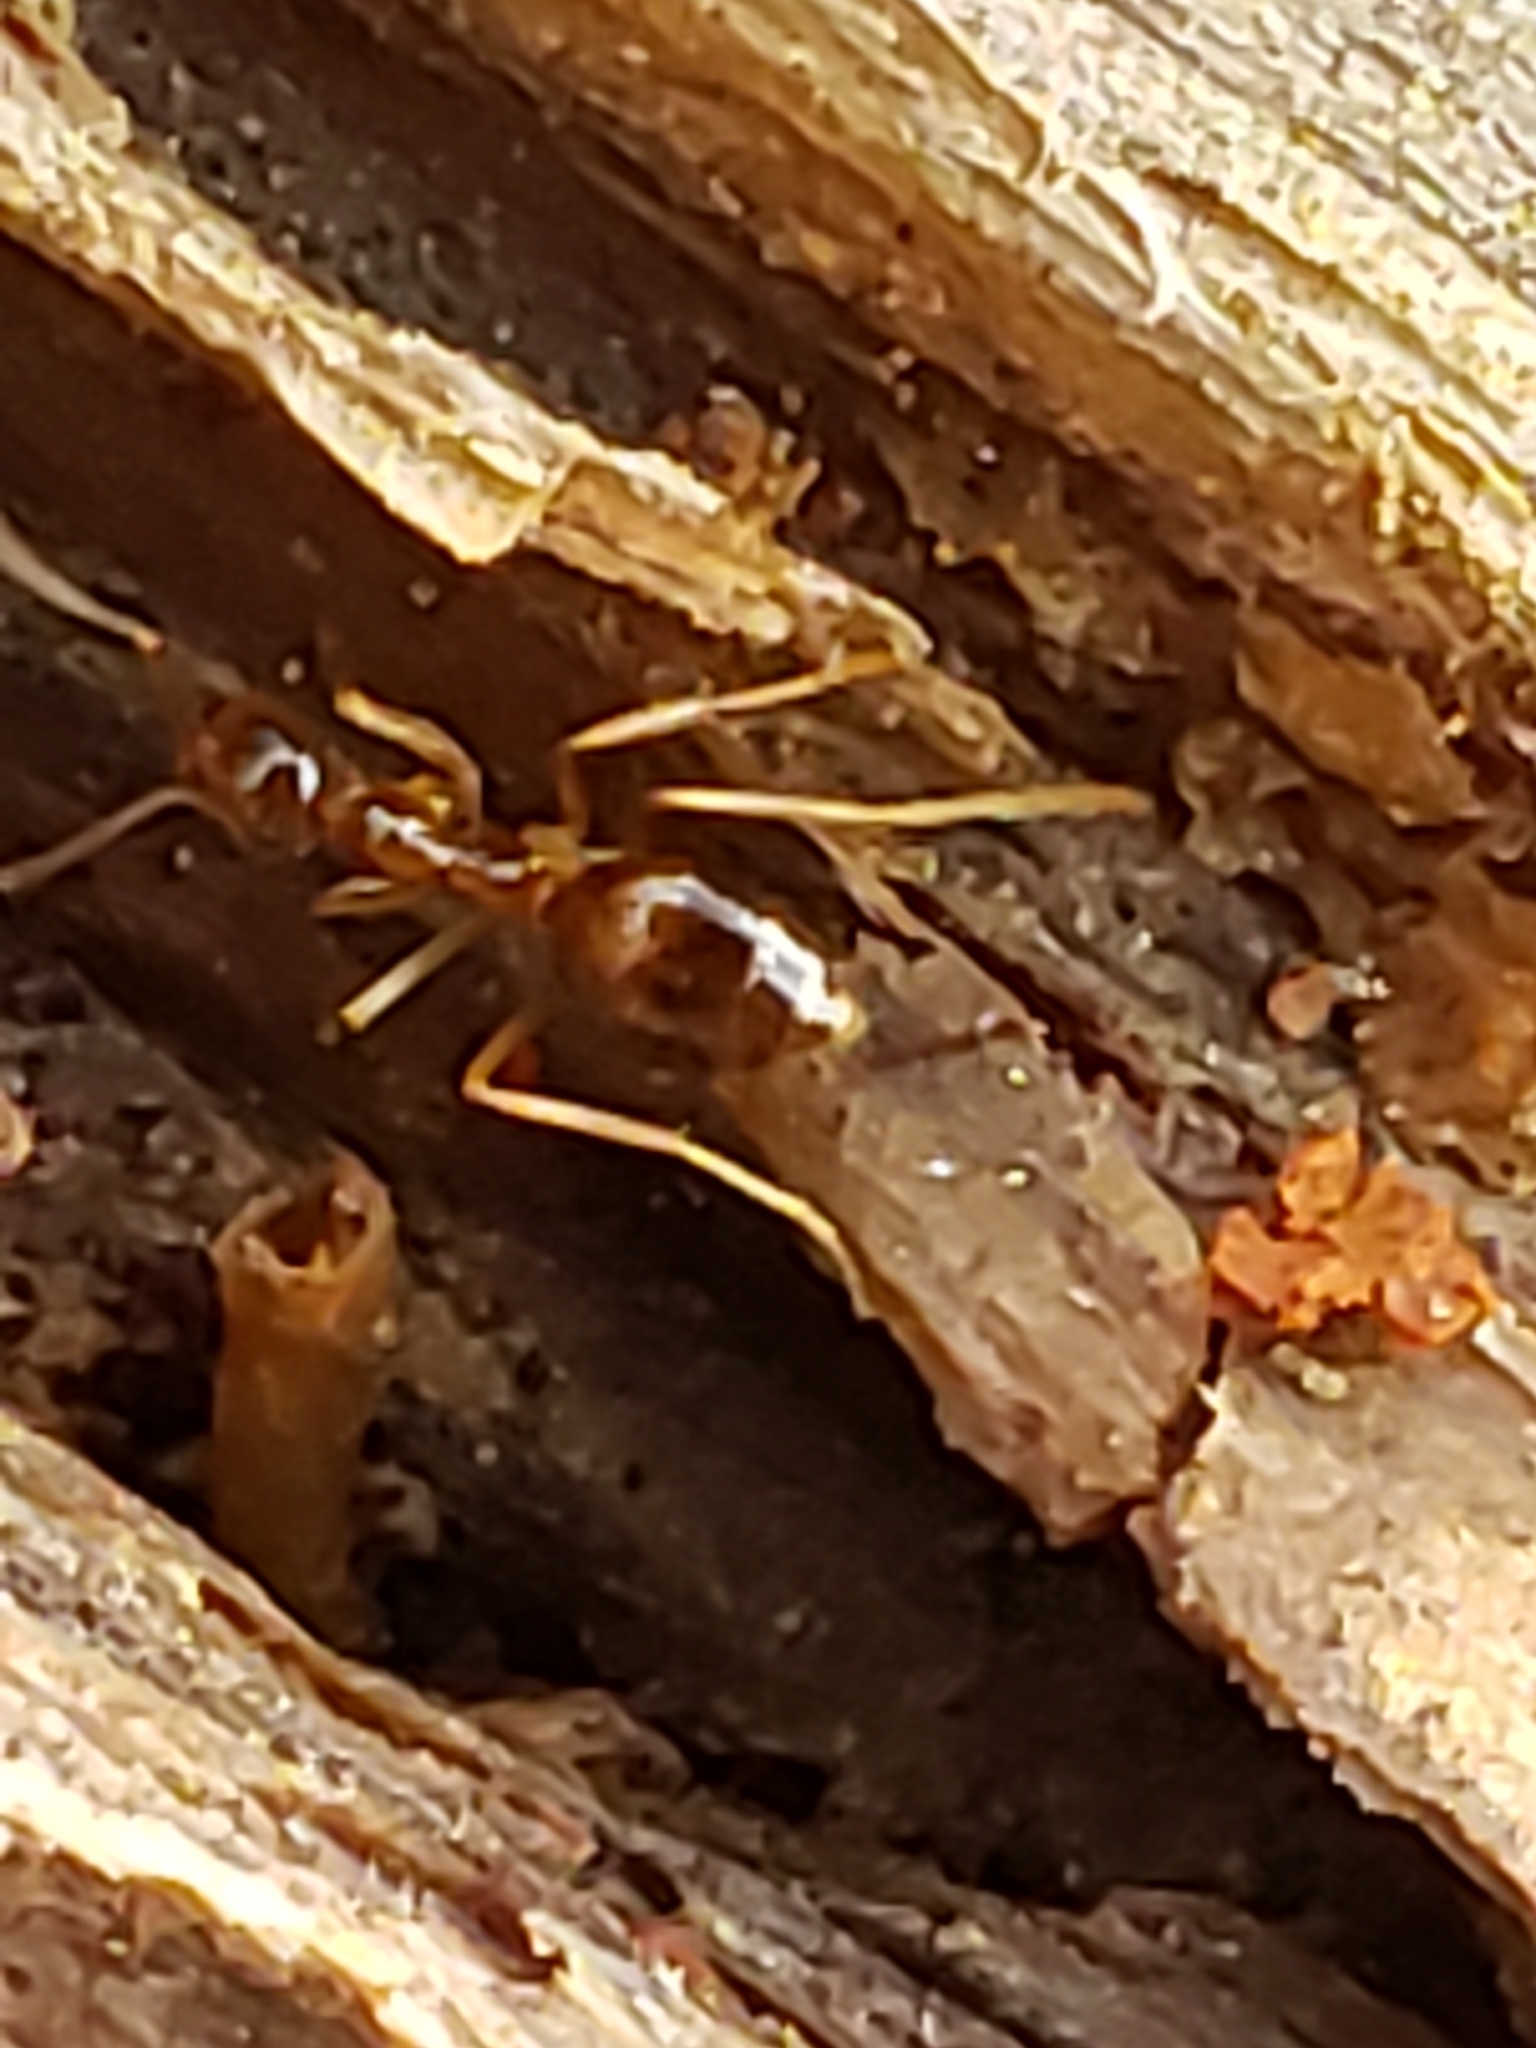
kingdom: Animalia
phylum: Arthropoda
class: Insecta
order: Hymenoptera
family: Formicidae
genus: Prenolepis
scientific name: Prenolepis imparis
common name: Small honey ant
